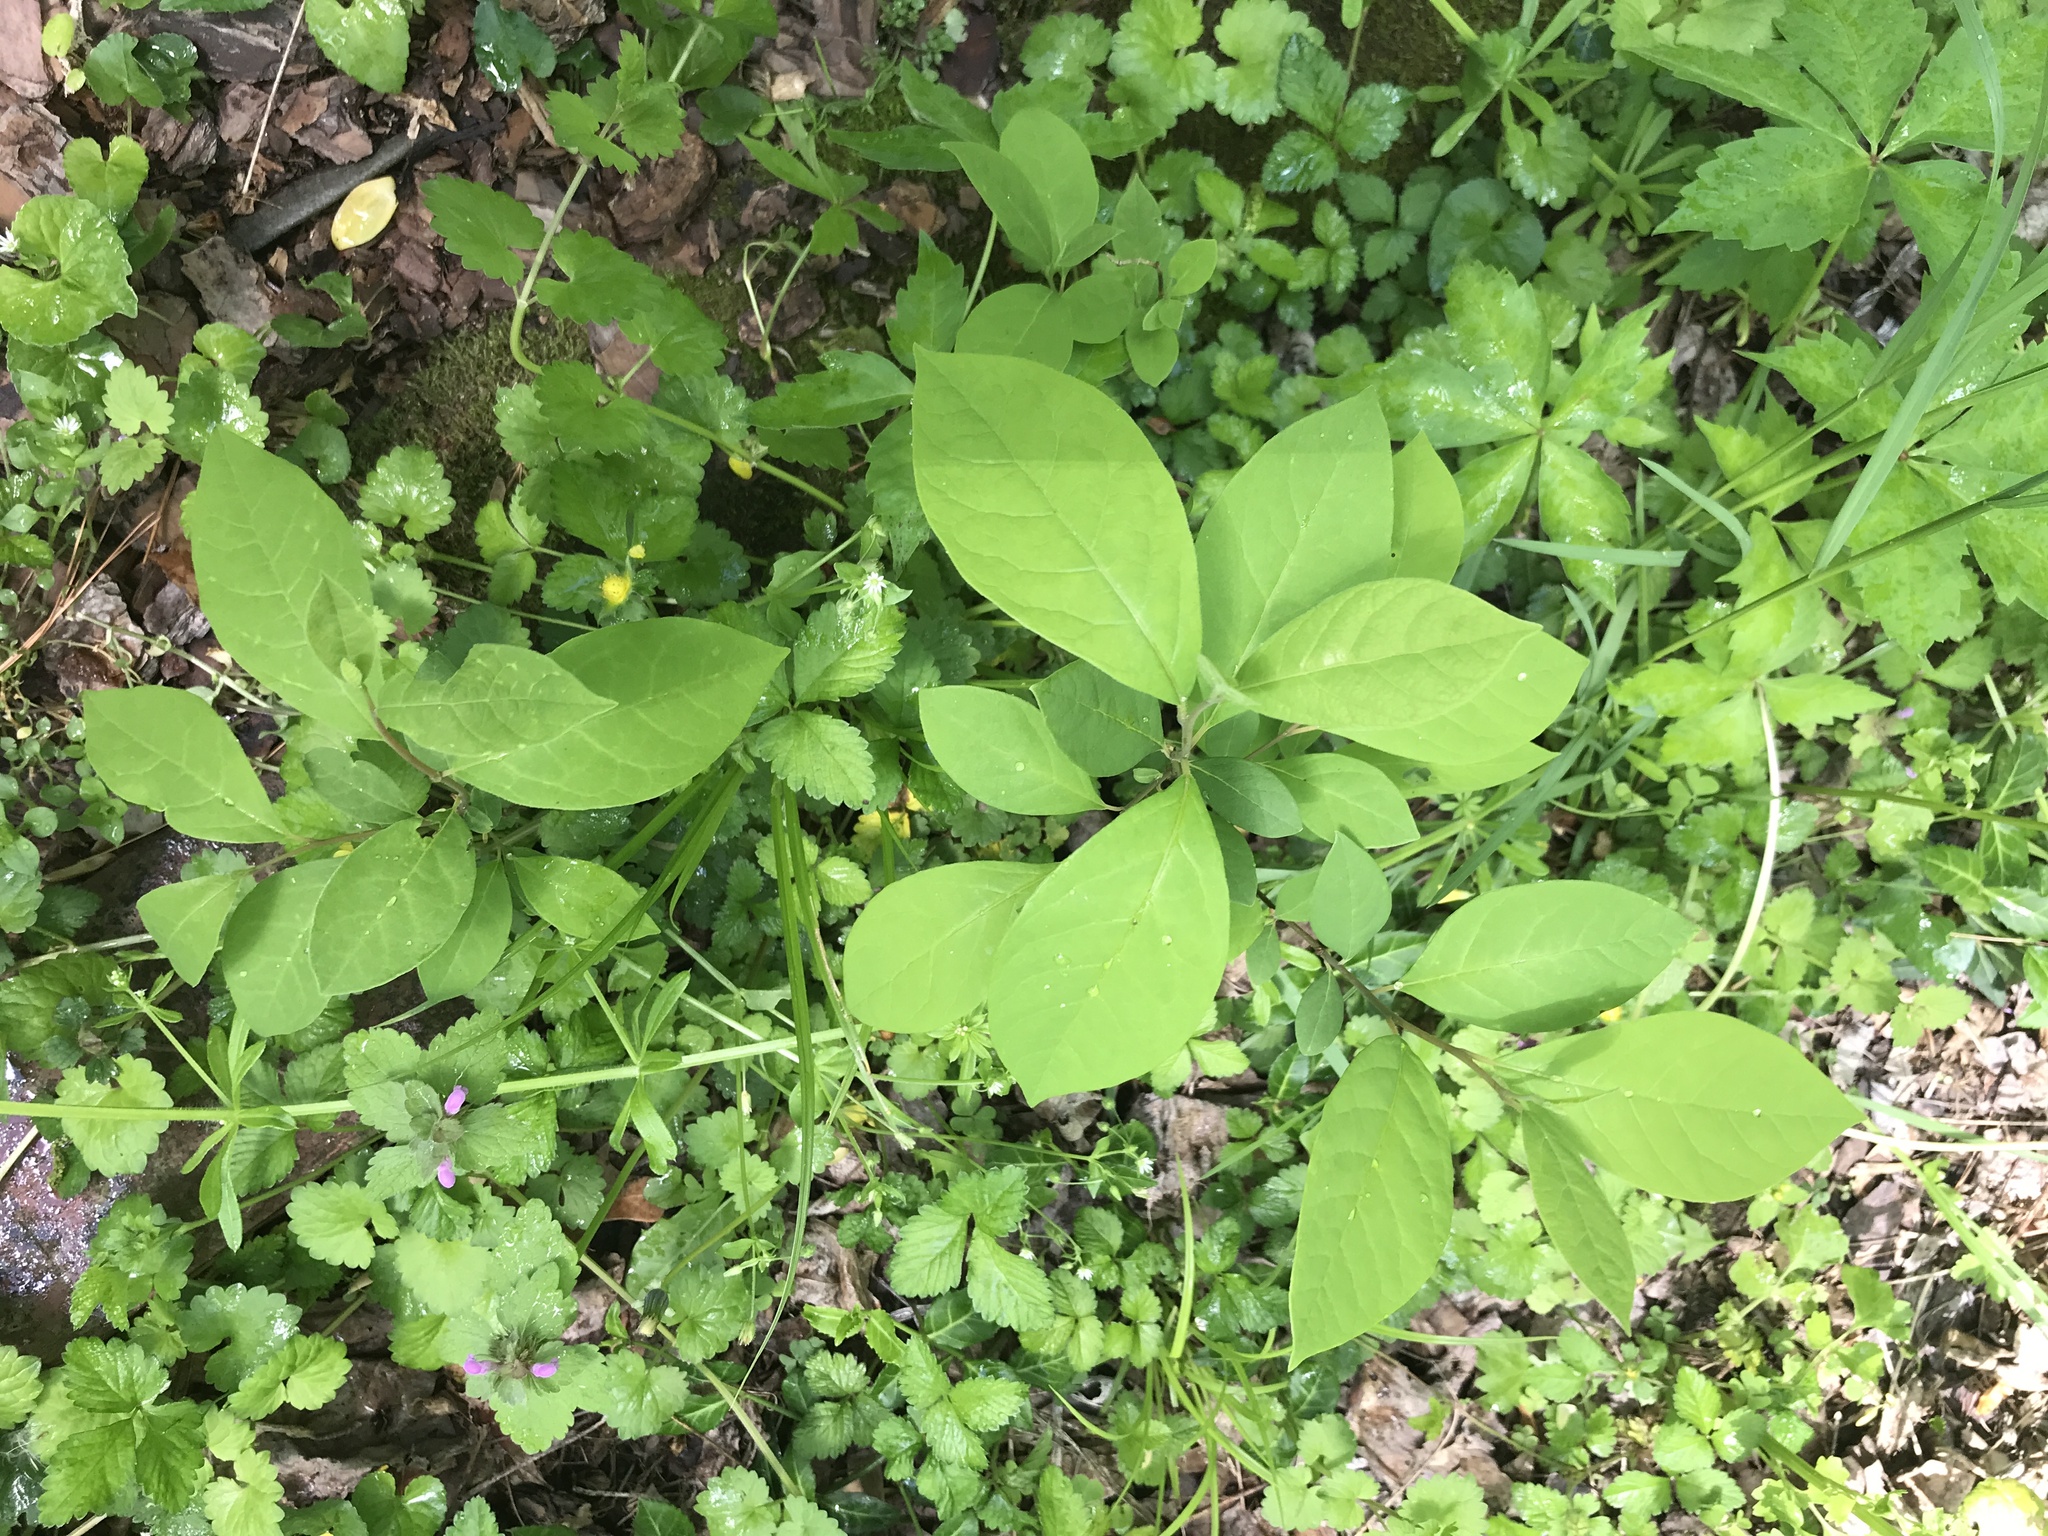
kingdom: Plantae
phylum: Tracheophyta
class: Magnoliopsida
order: Laurales
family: Lauraceae
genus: Lindera
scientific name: Lindera benzoin
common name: Spicebush
